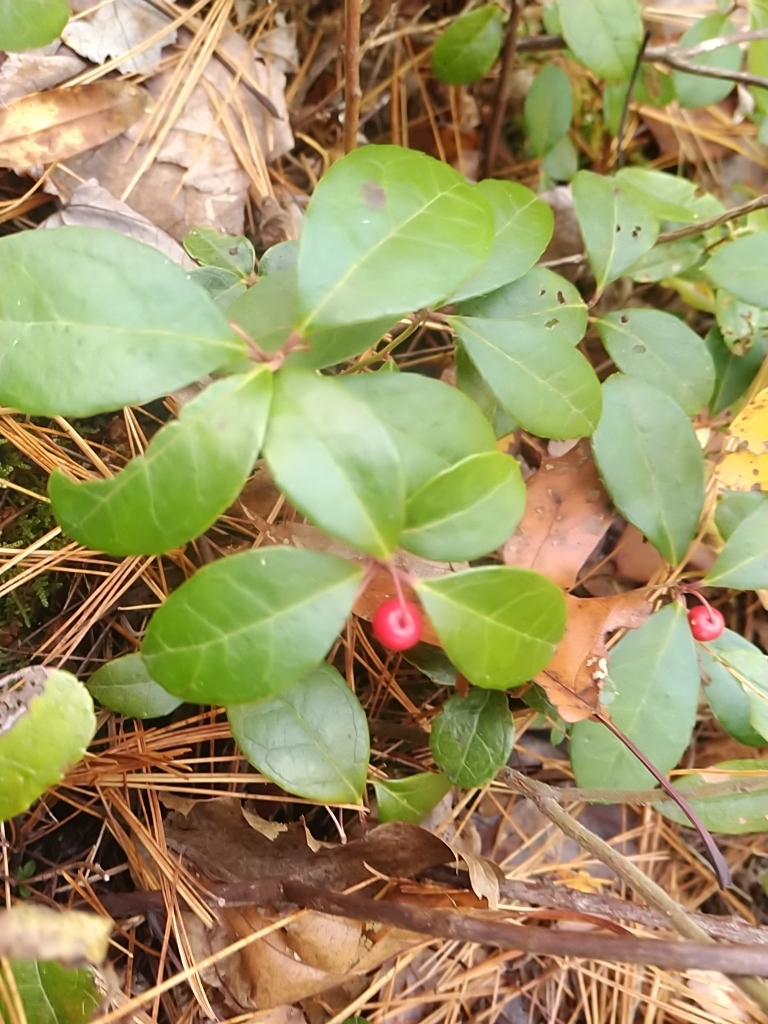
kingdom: Plantae
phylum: Tracheophyta
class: Magnoliopsida
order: Ericales
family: Ericaceae
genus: Gaultheria
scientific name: Gaultheria procumbens
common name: Checkerberry
